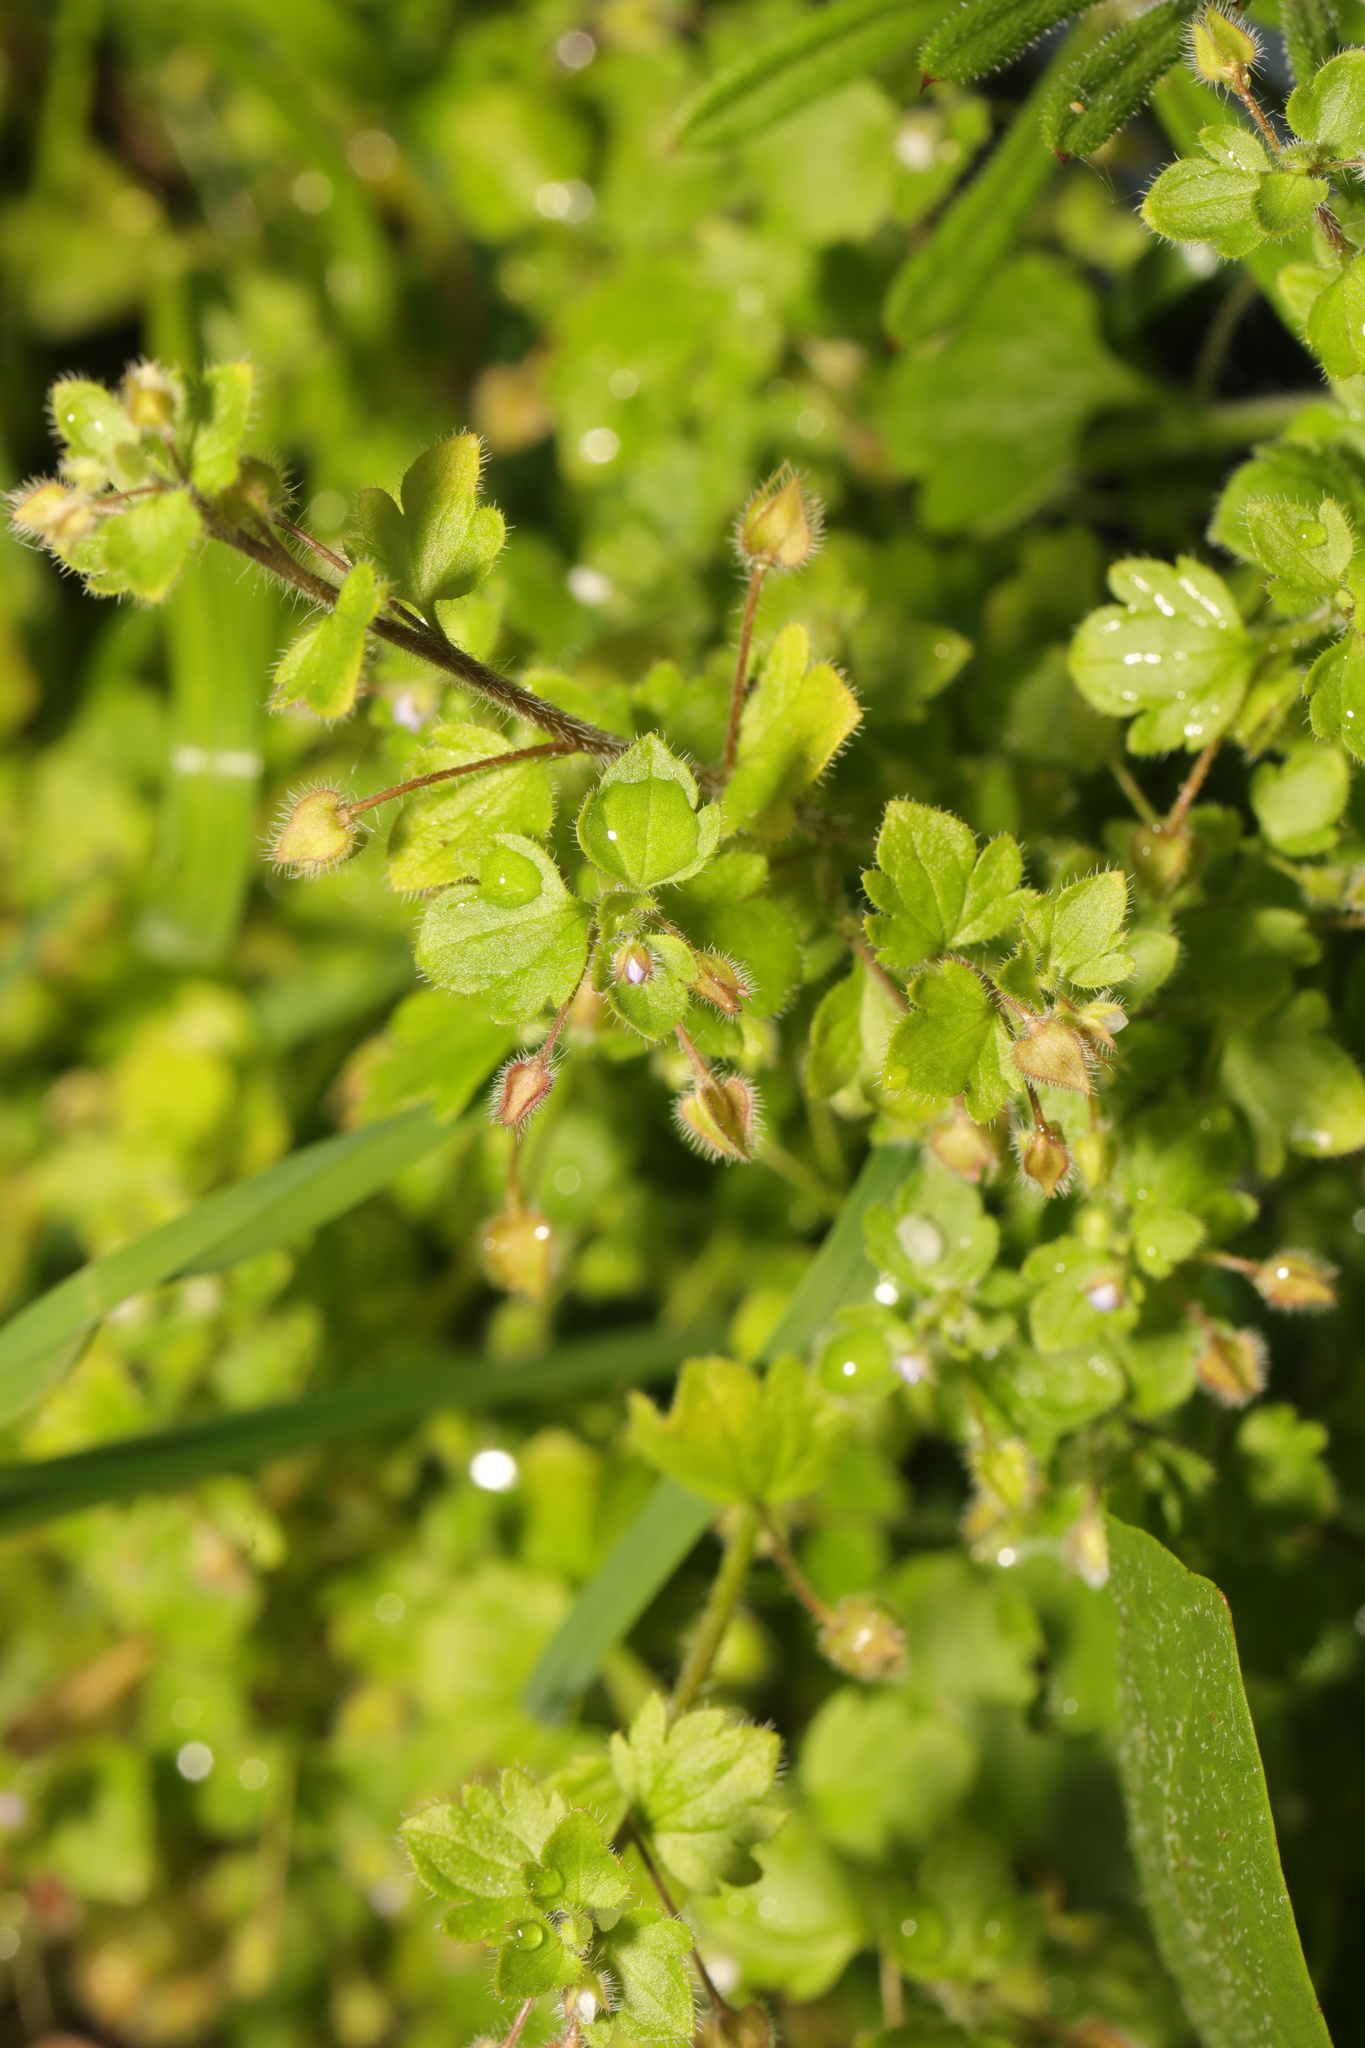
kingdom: Plantae
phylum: Tracheophyta
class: Magnoliopsida
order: Lamiales
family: Plantaginaceae
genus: Veronica
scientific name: Veronica sublobata
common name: False ivy-leaved speedwell
